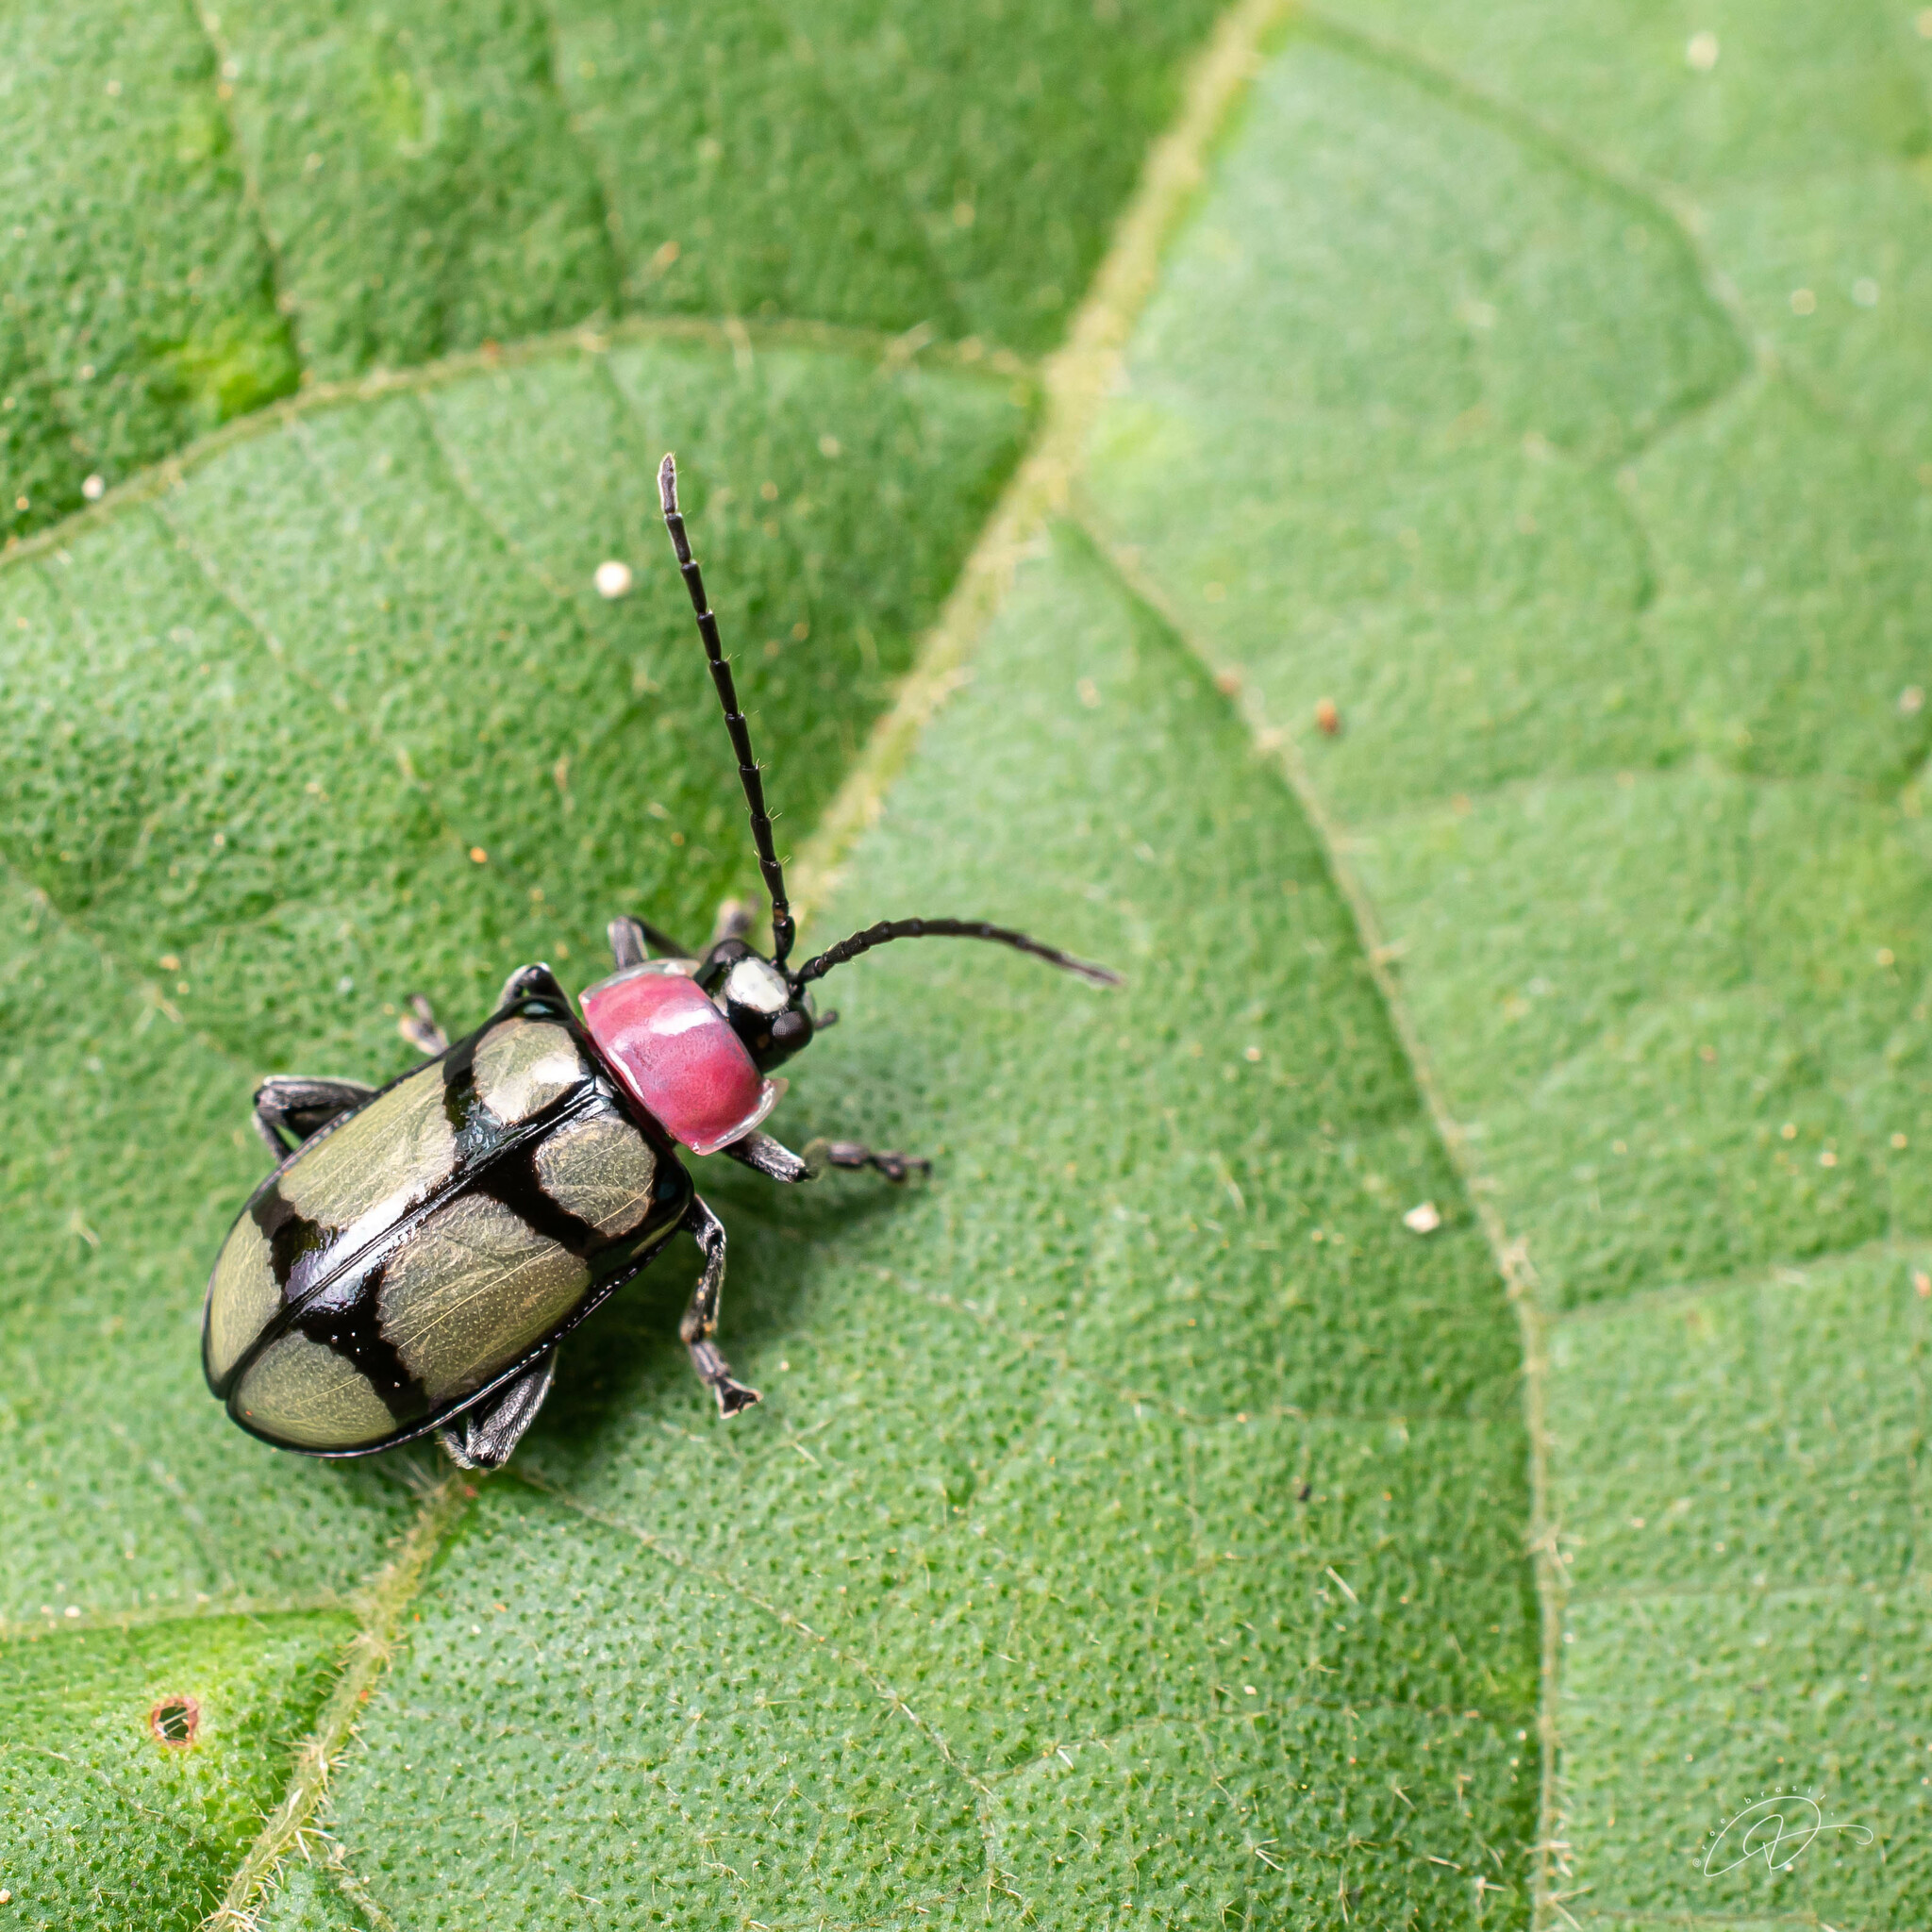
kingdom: Animalia
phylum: Arthropoda
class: Insecta
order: Coleoptera
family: Chrysomelidae
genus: Omophoita
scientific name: Omophoita
